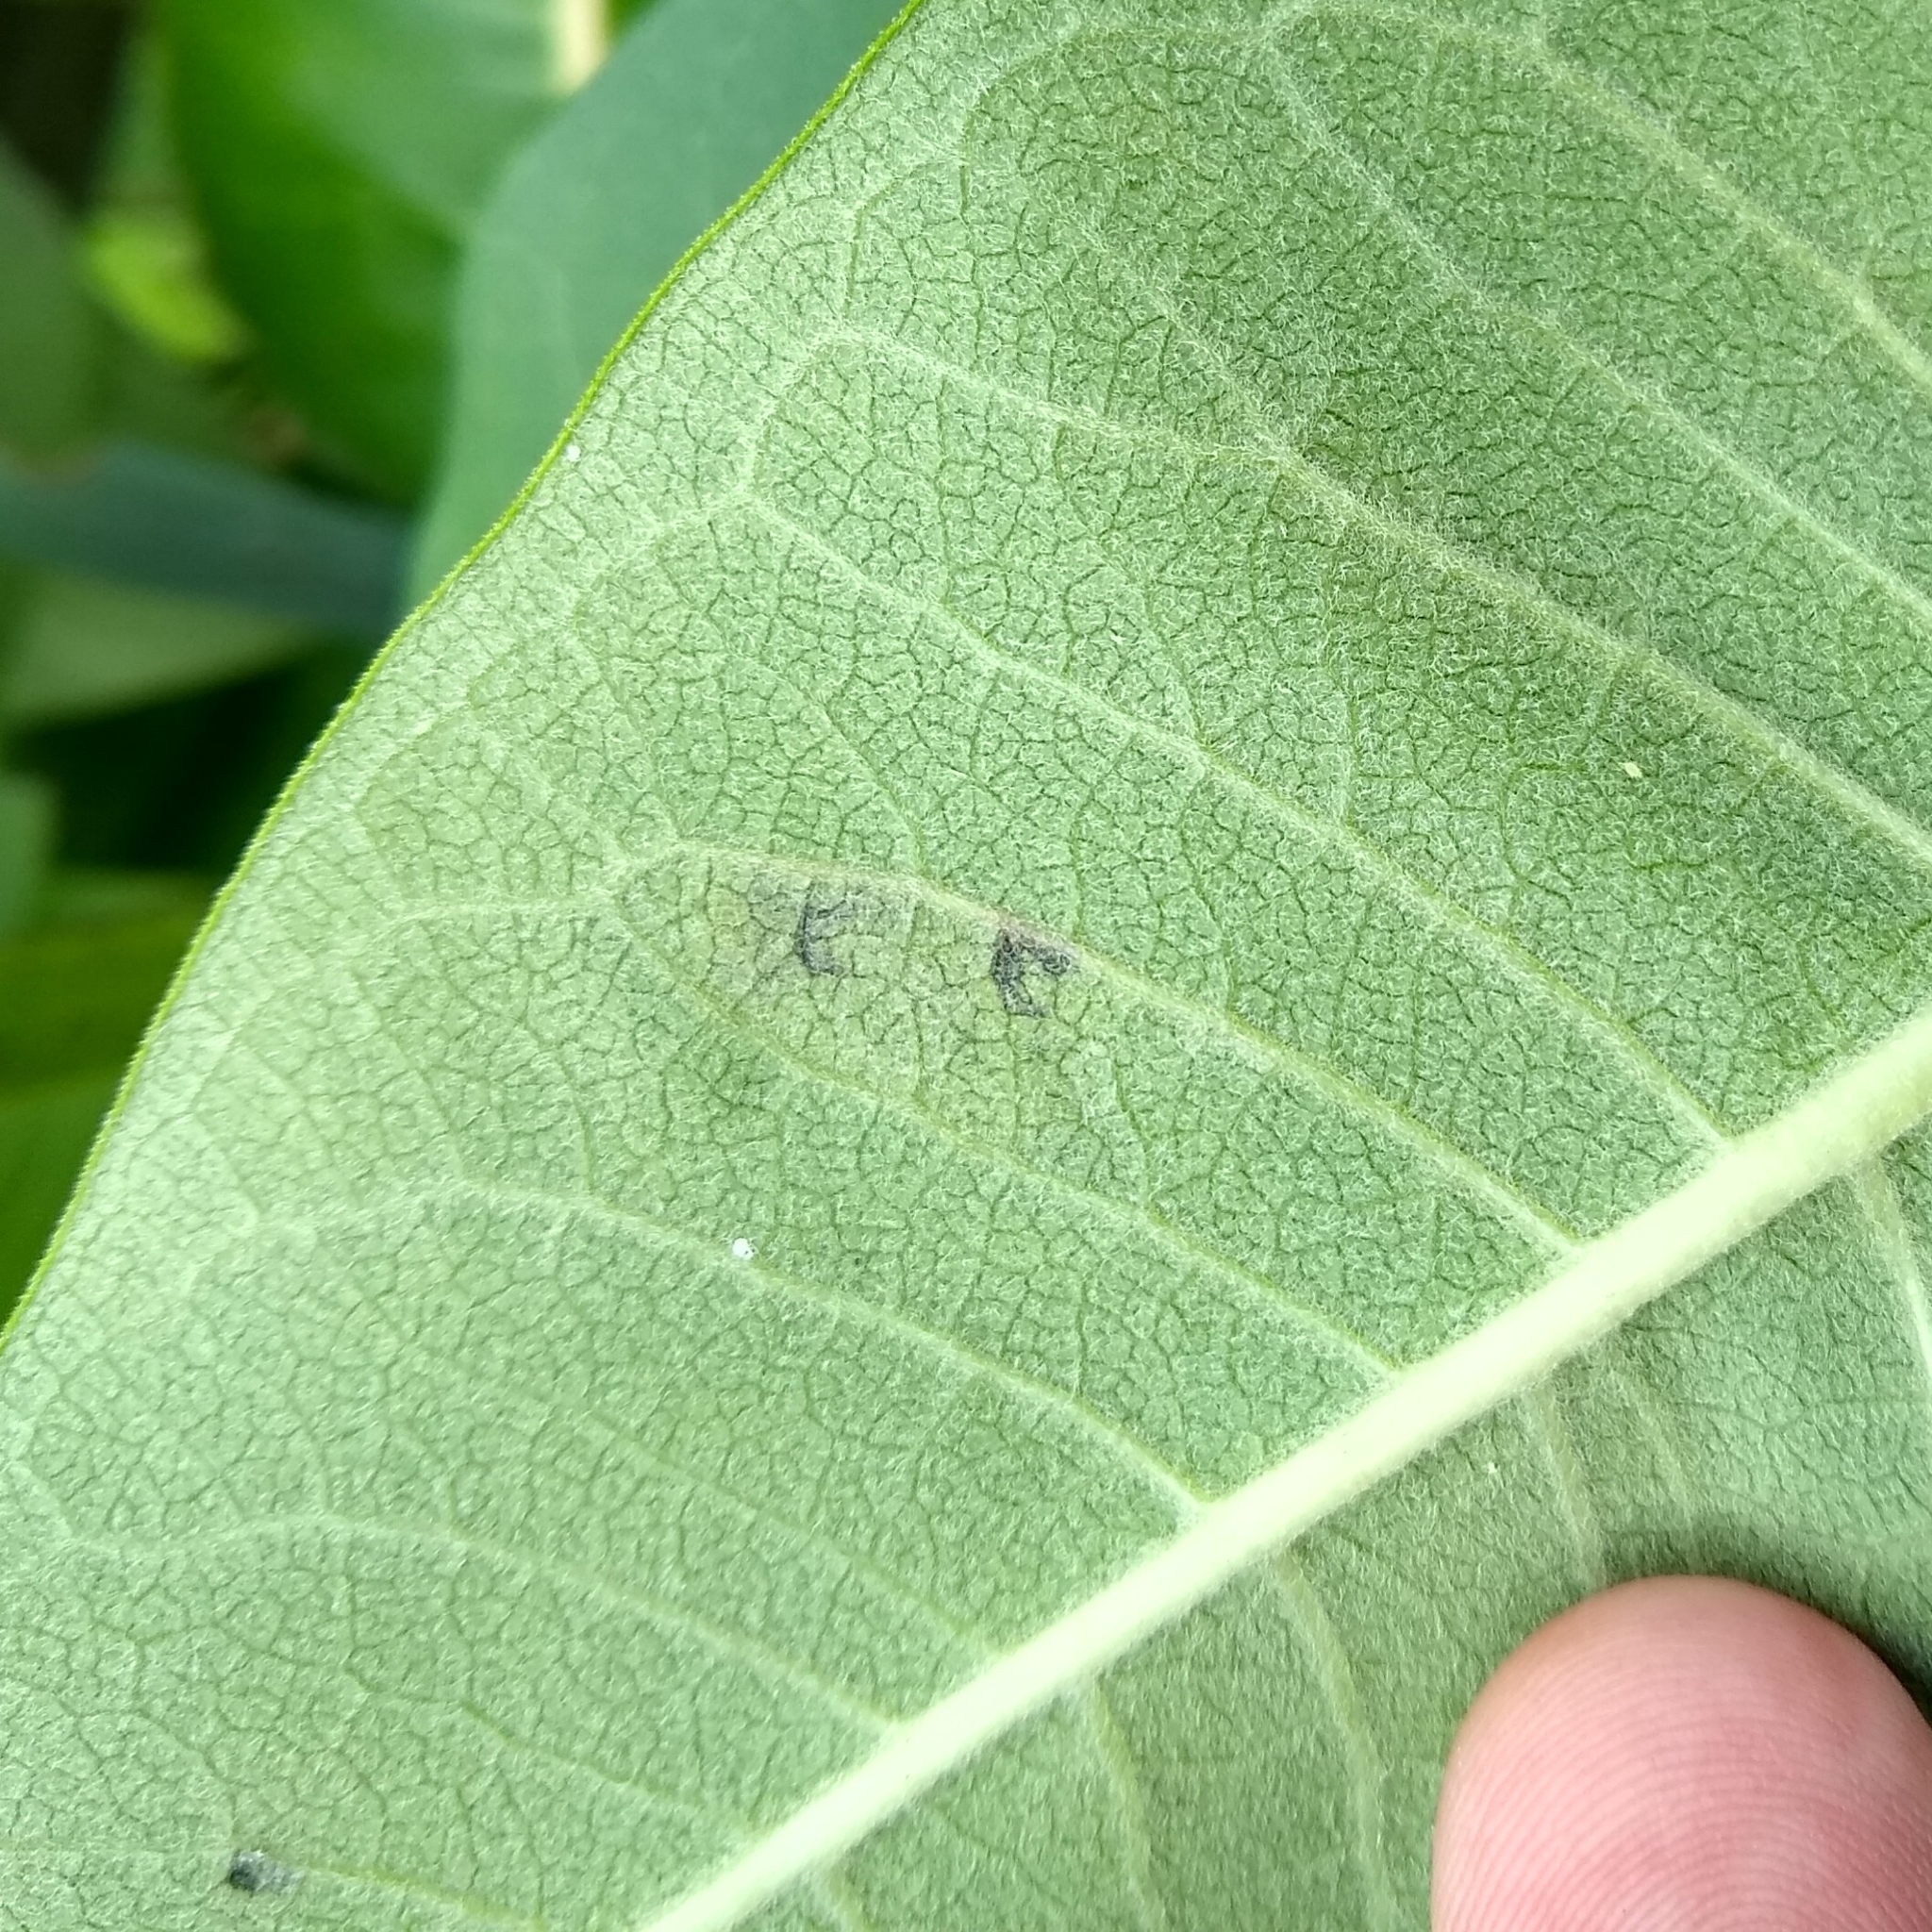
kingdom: Animalia
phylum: Arthropoda
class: Insecta
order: Diptera
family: Agromyzidae
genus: Liriomyza
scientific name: Liriomyza asclepiadis
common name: Milkweed leaf-miner fly
